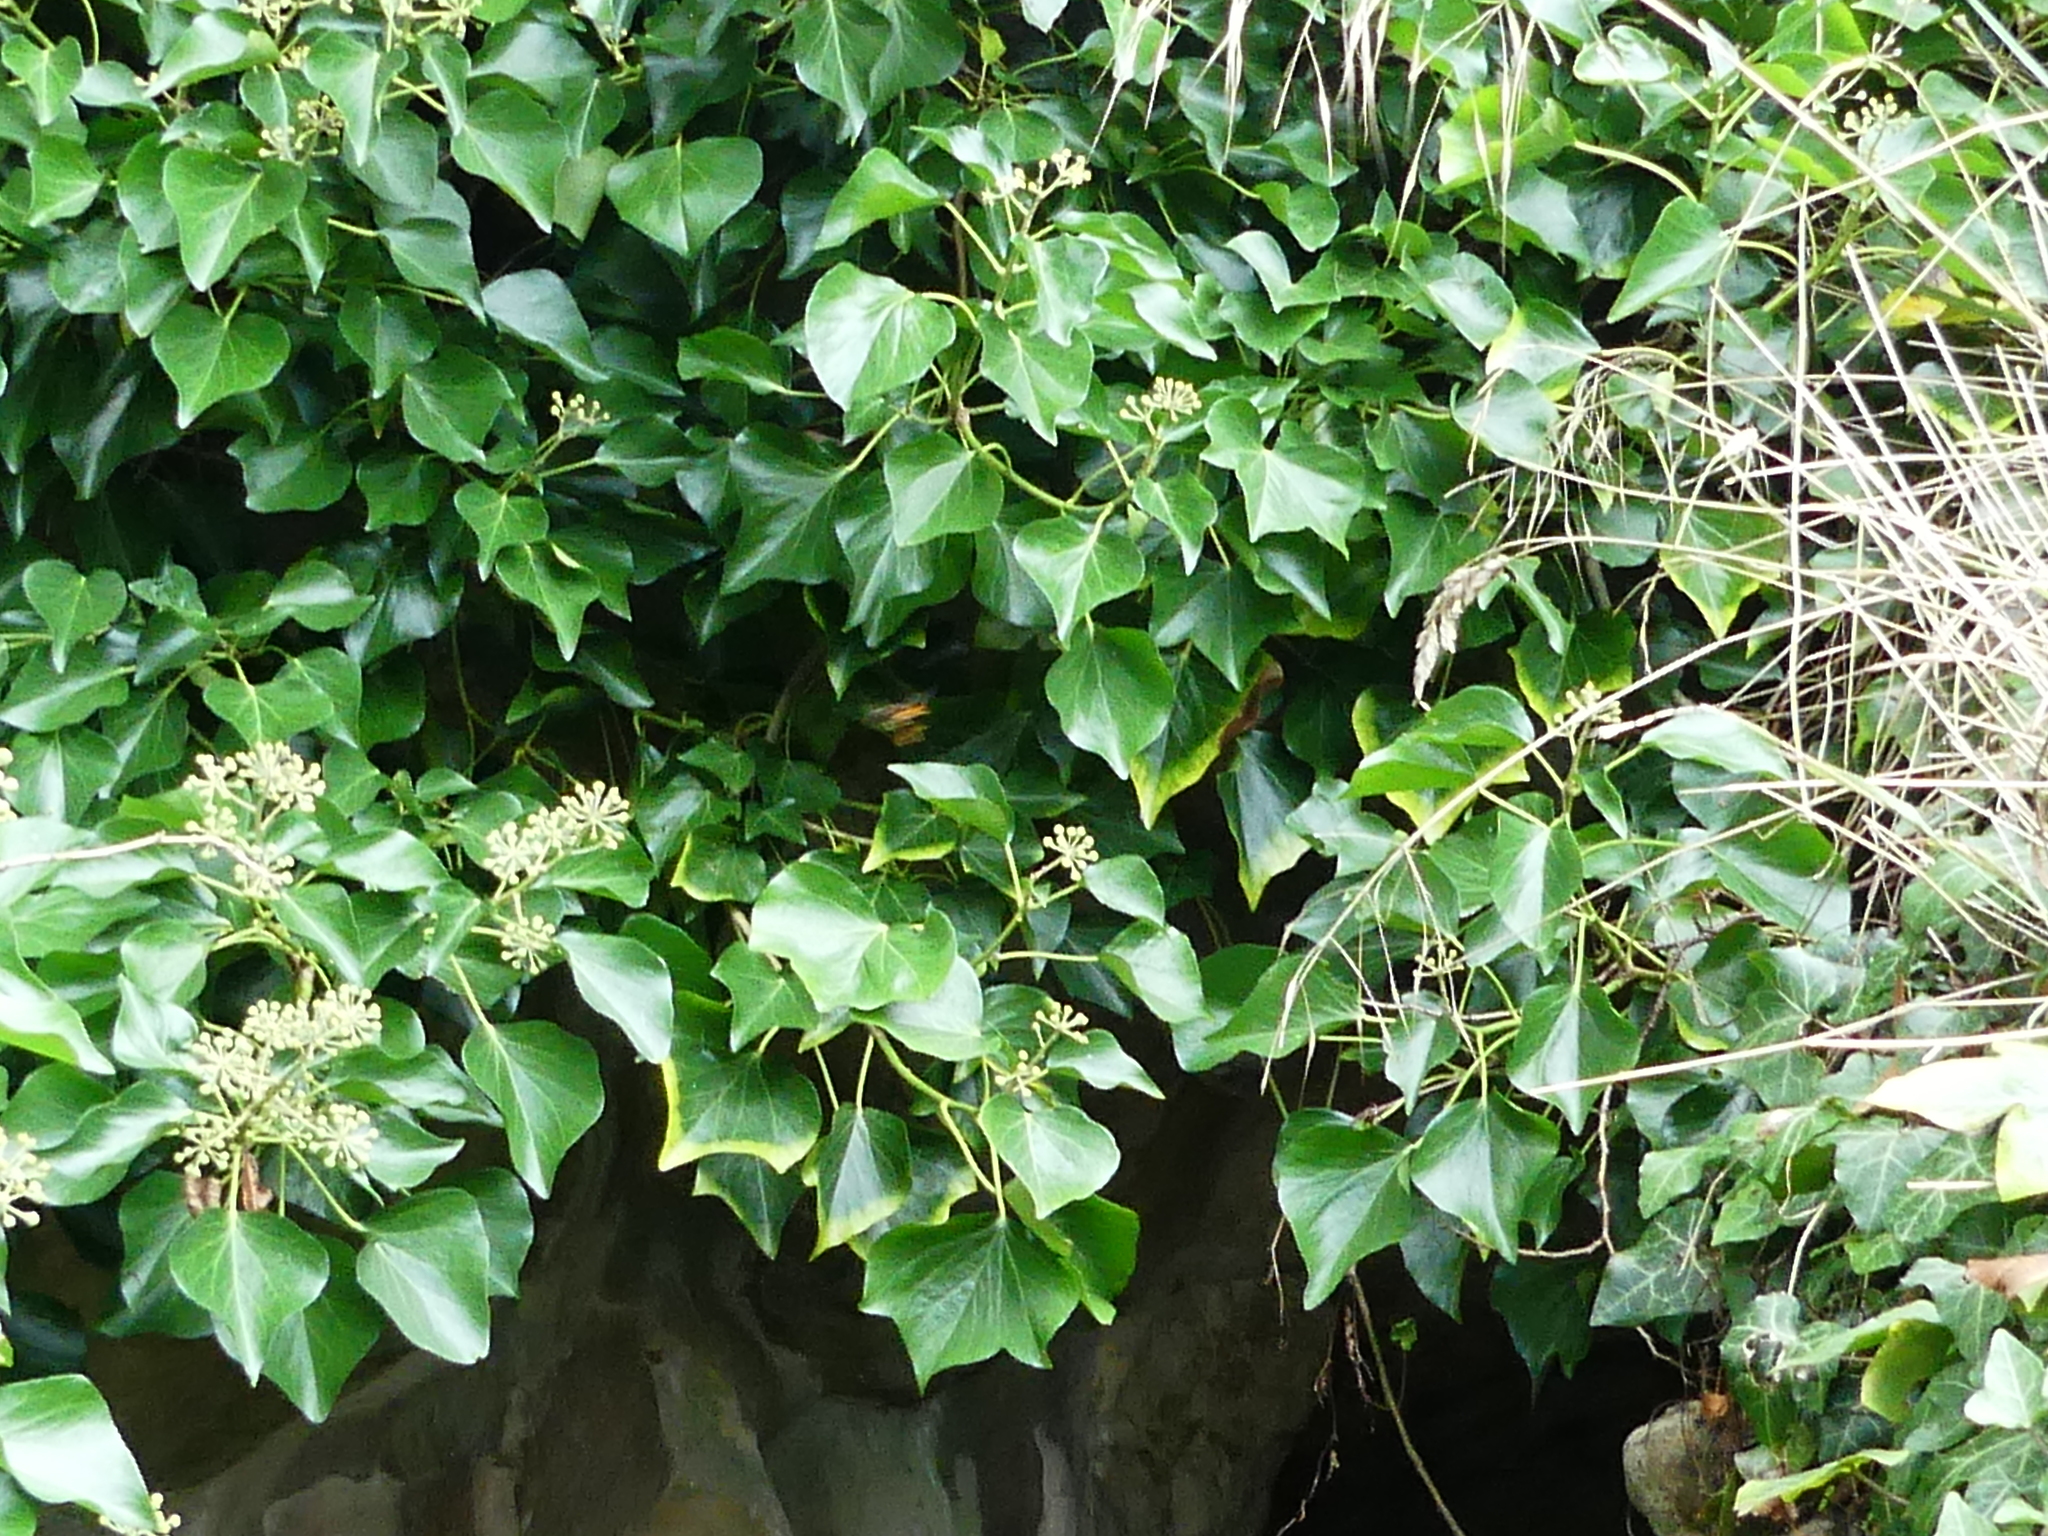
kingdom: Plantae
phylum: Tracheophyta
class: Magnoliopsida
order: Apiales
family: Araliaceae
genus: Hedera
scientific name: Hedera helix
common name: Ivy
